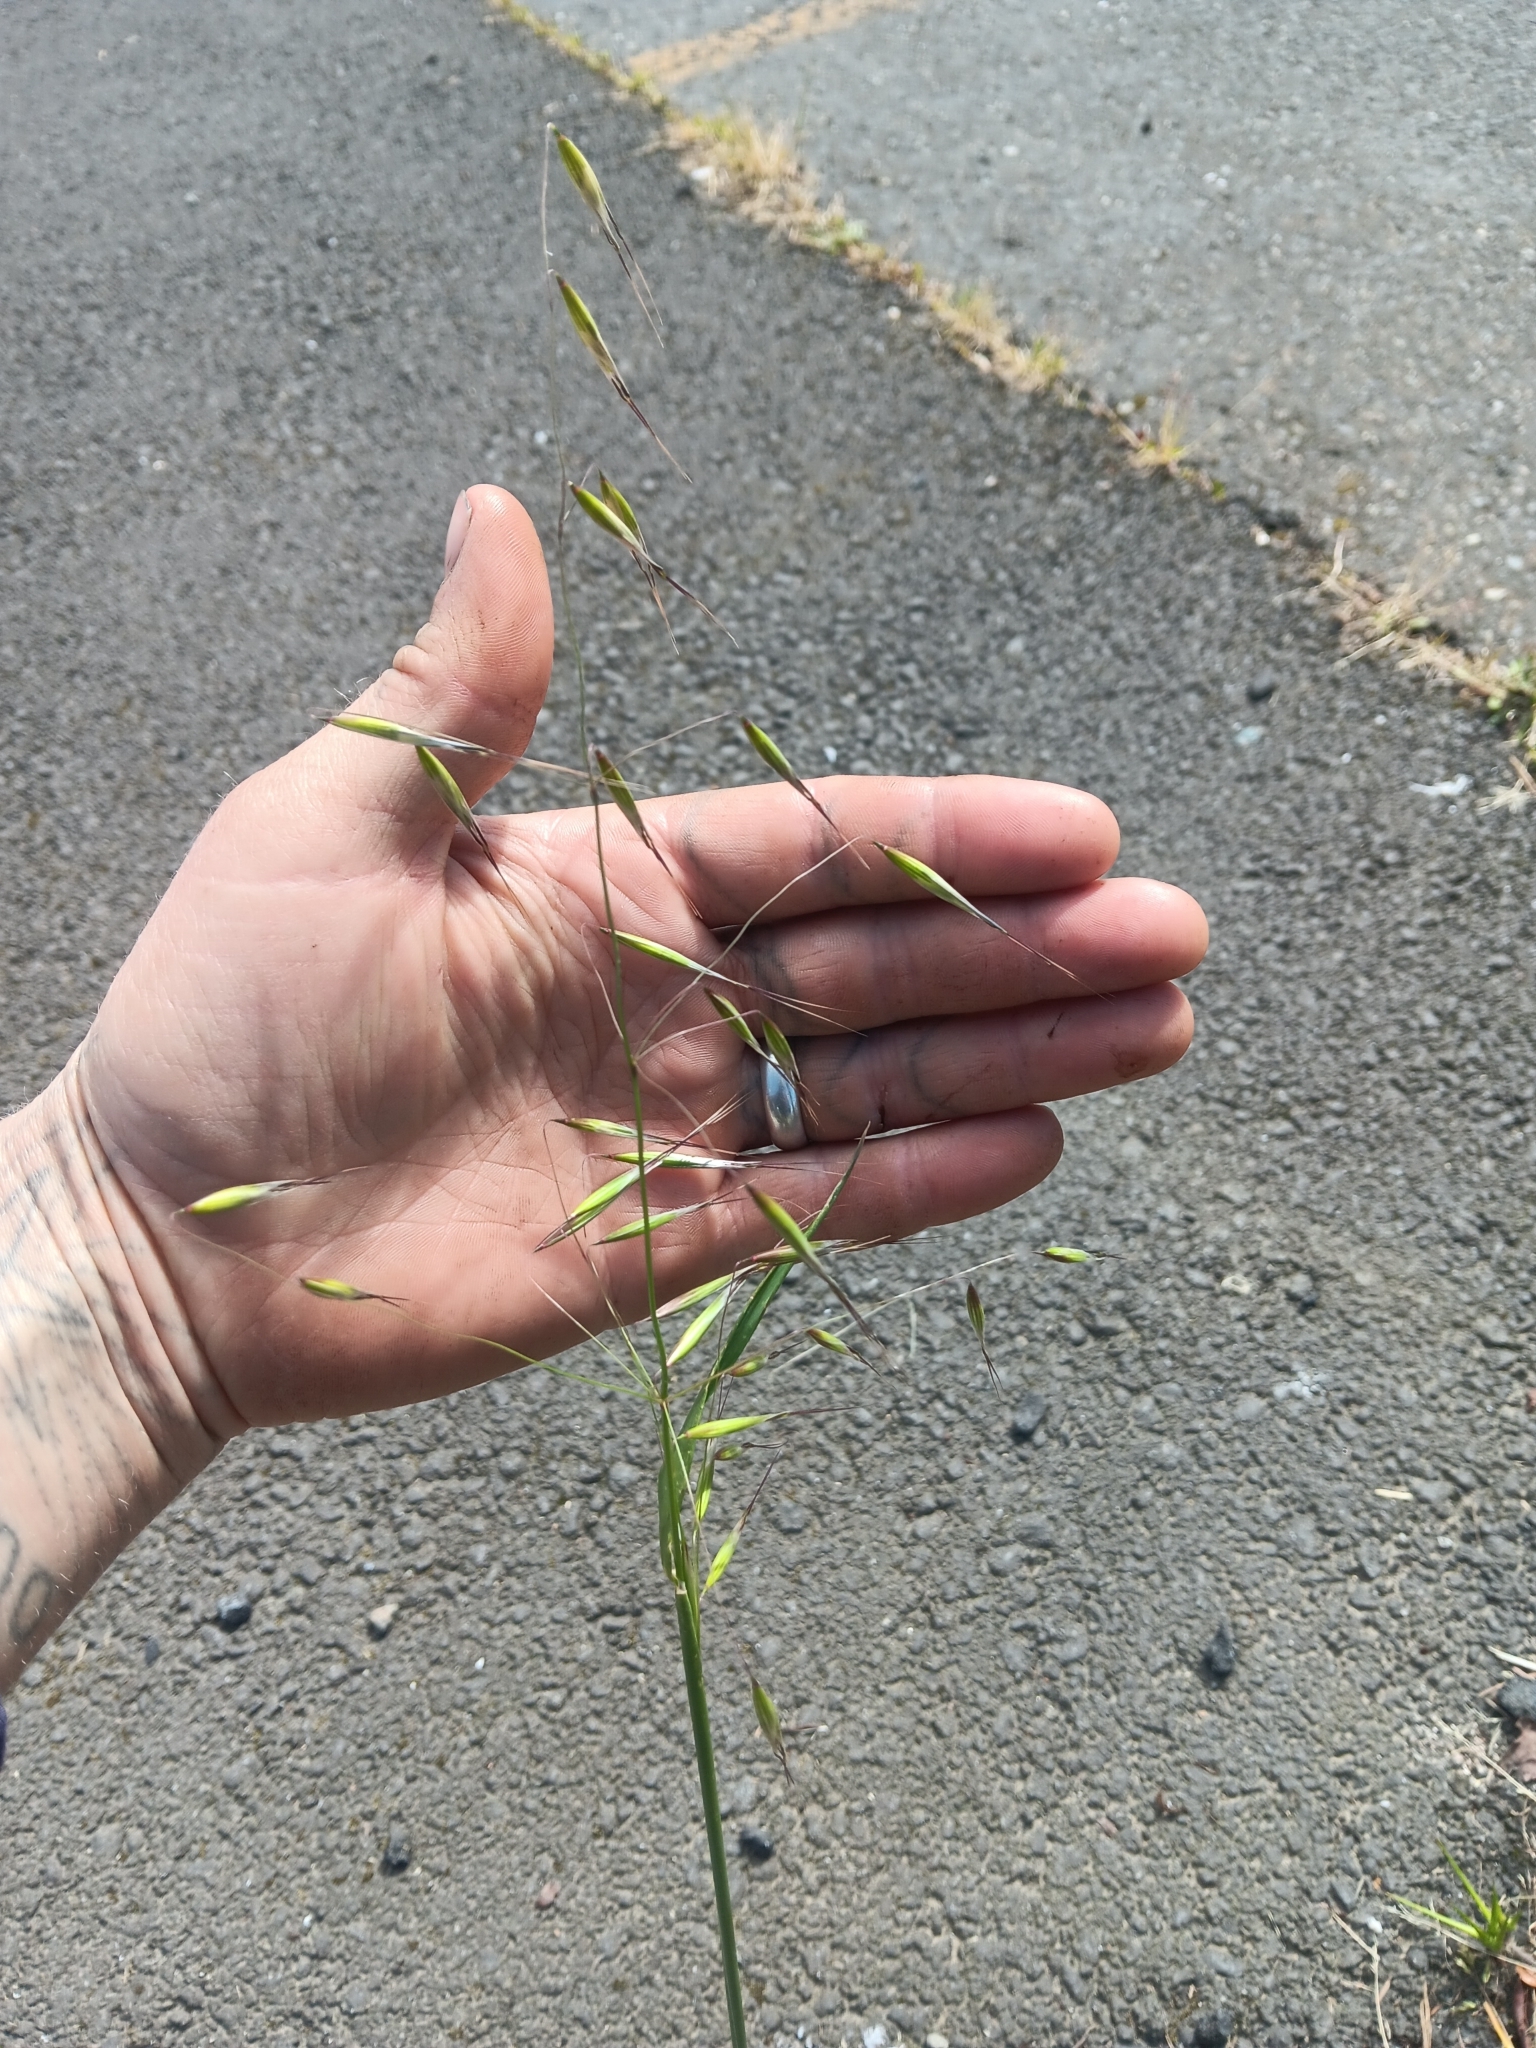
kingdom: Plantae
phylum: Tracheophyta
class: Liliopsida
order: Poales
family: Poaceae
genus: Avena
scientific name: Avena barbata
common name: Slender oat
